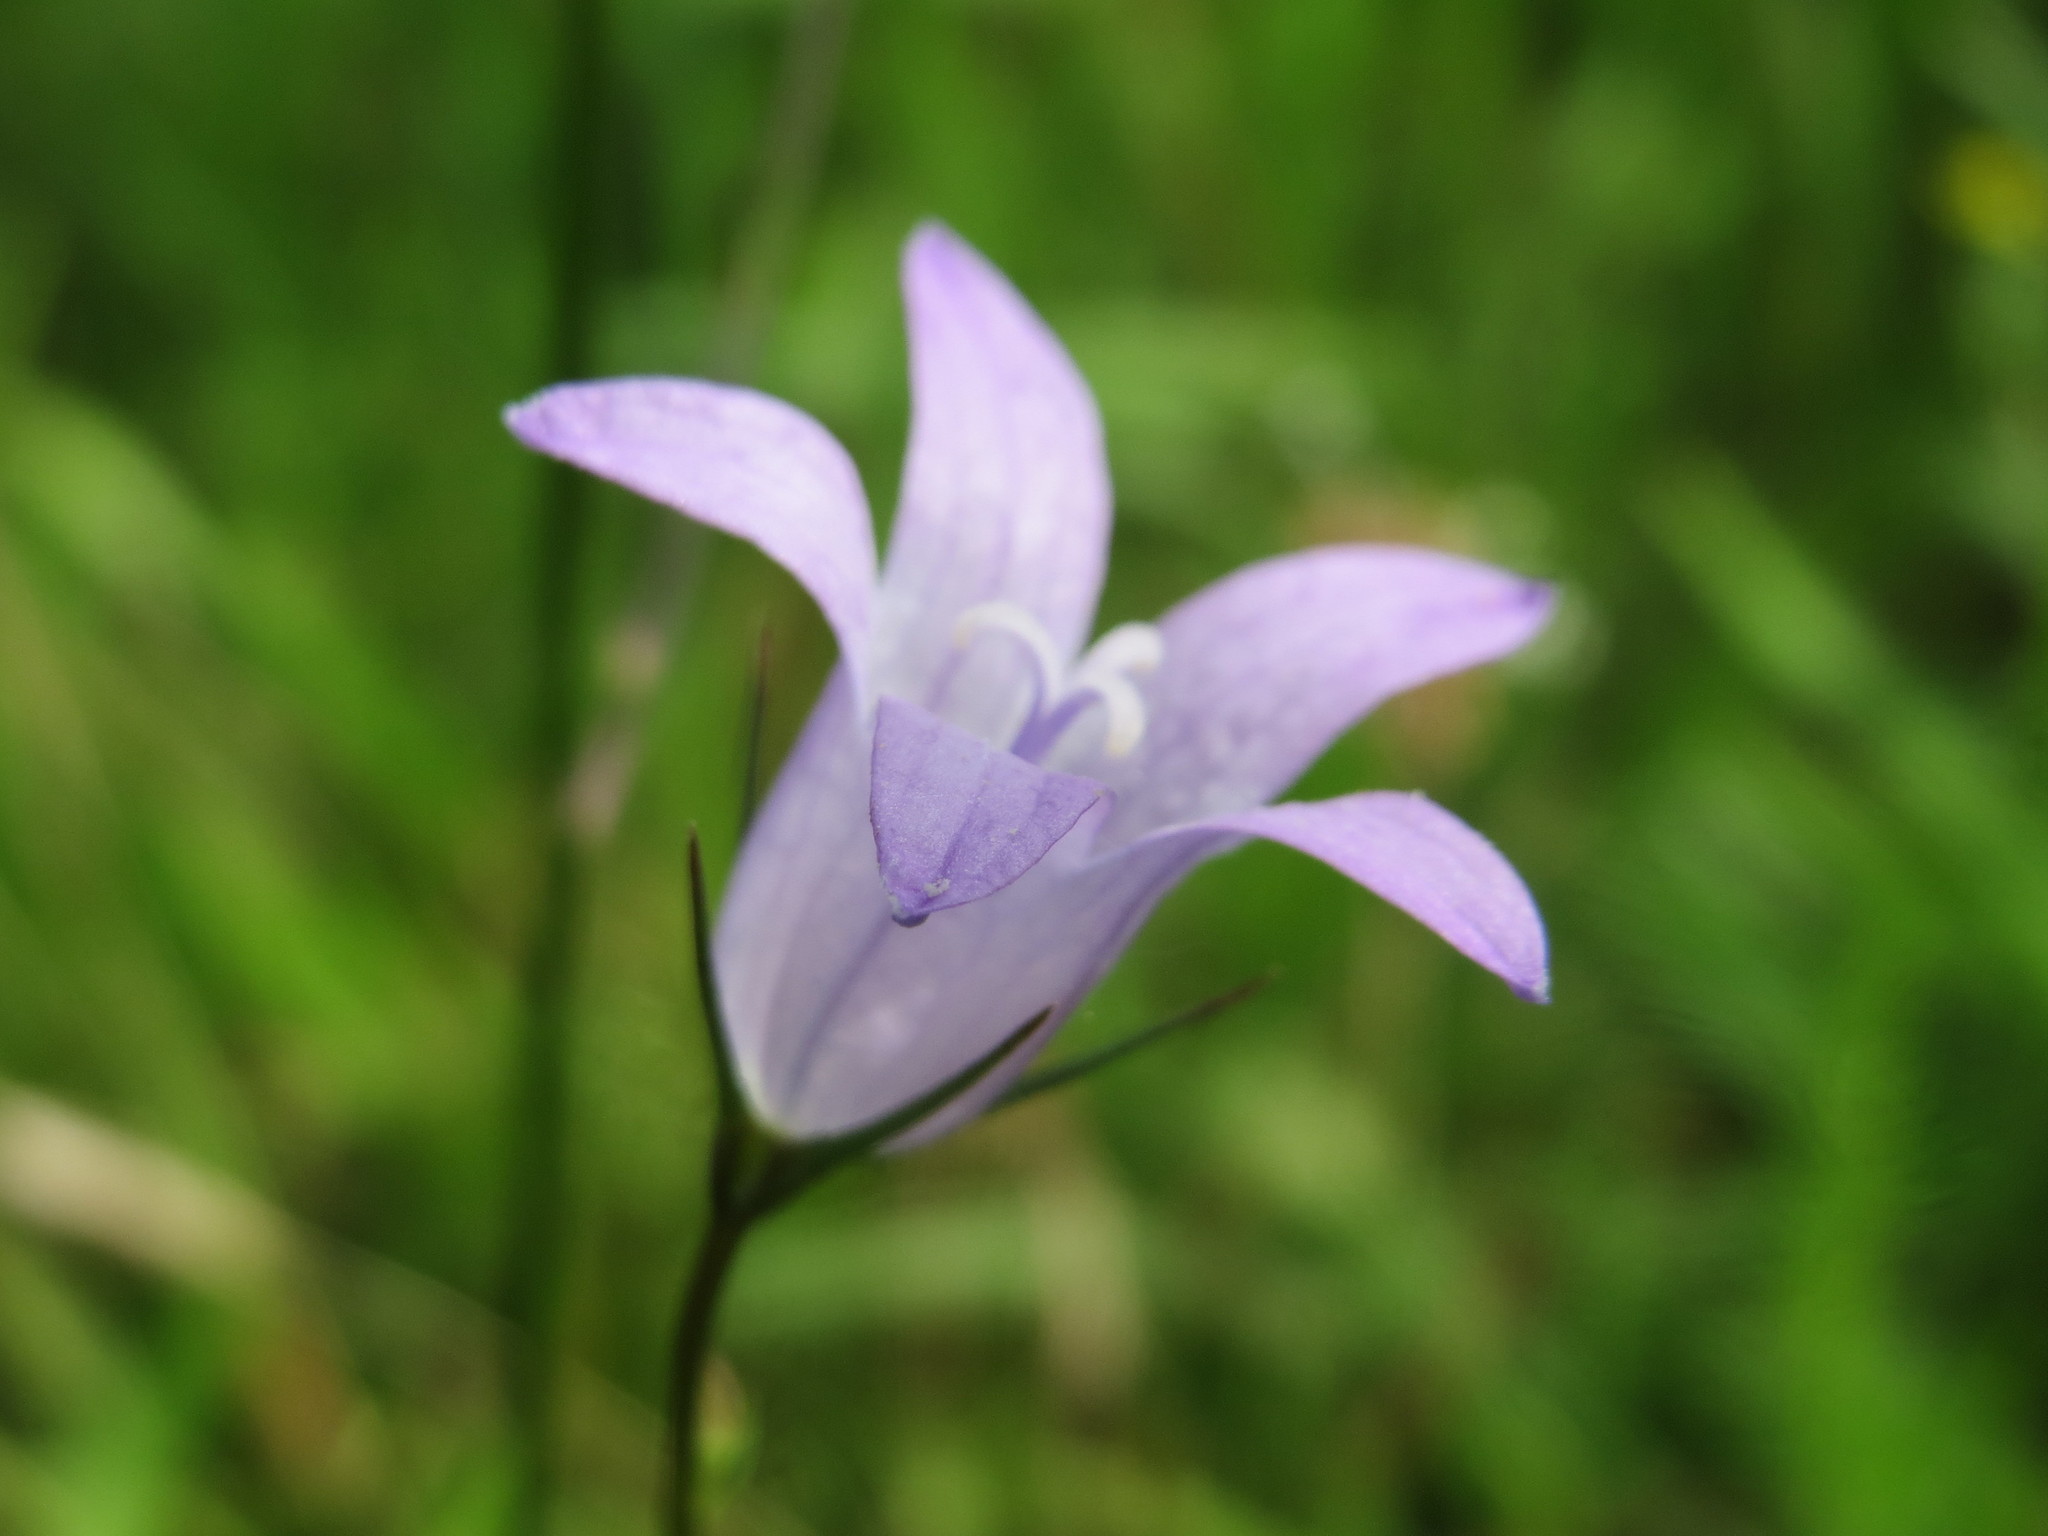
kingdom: Plantae
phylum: Tracheophyta
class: Magnoliopsida
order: Asterales
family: Campanulaceae
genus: Campanula
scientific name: Campanula rapunculus
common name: Rampion bellflower
